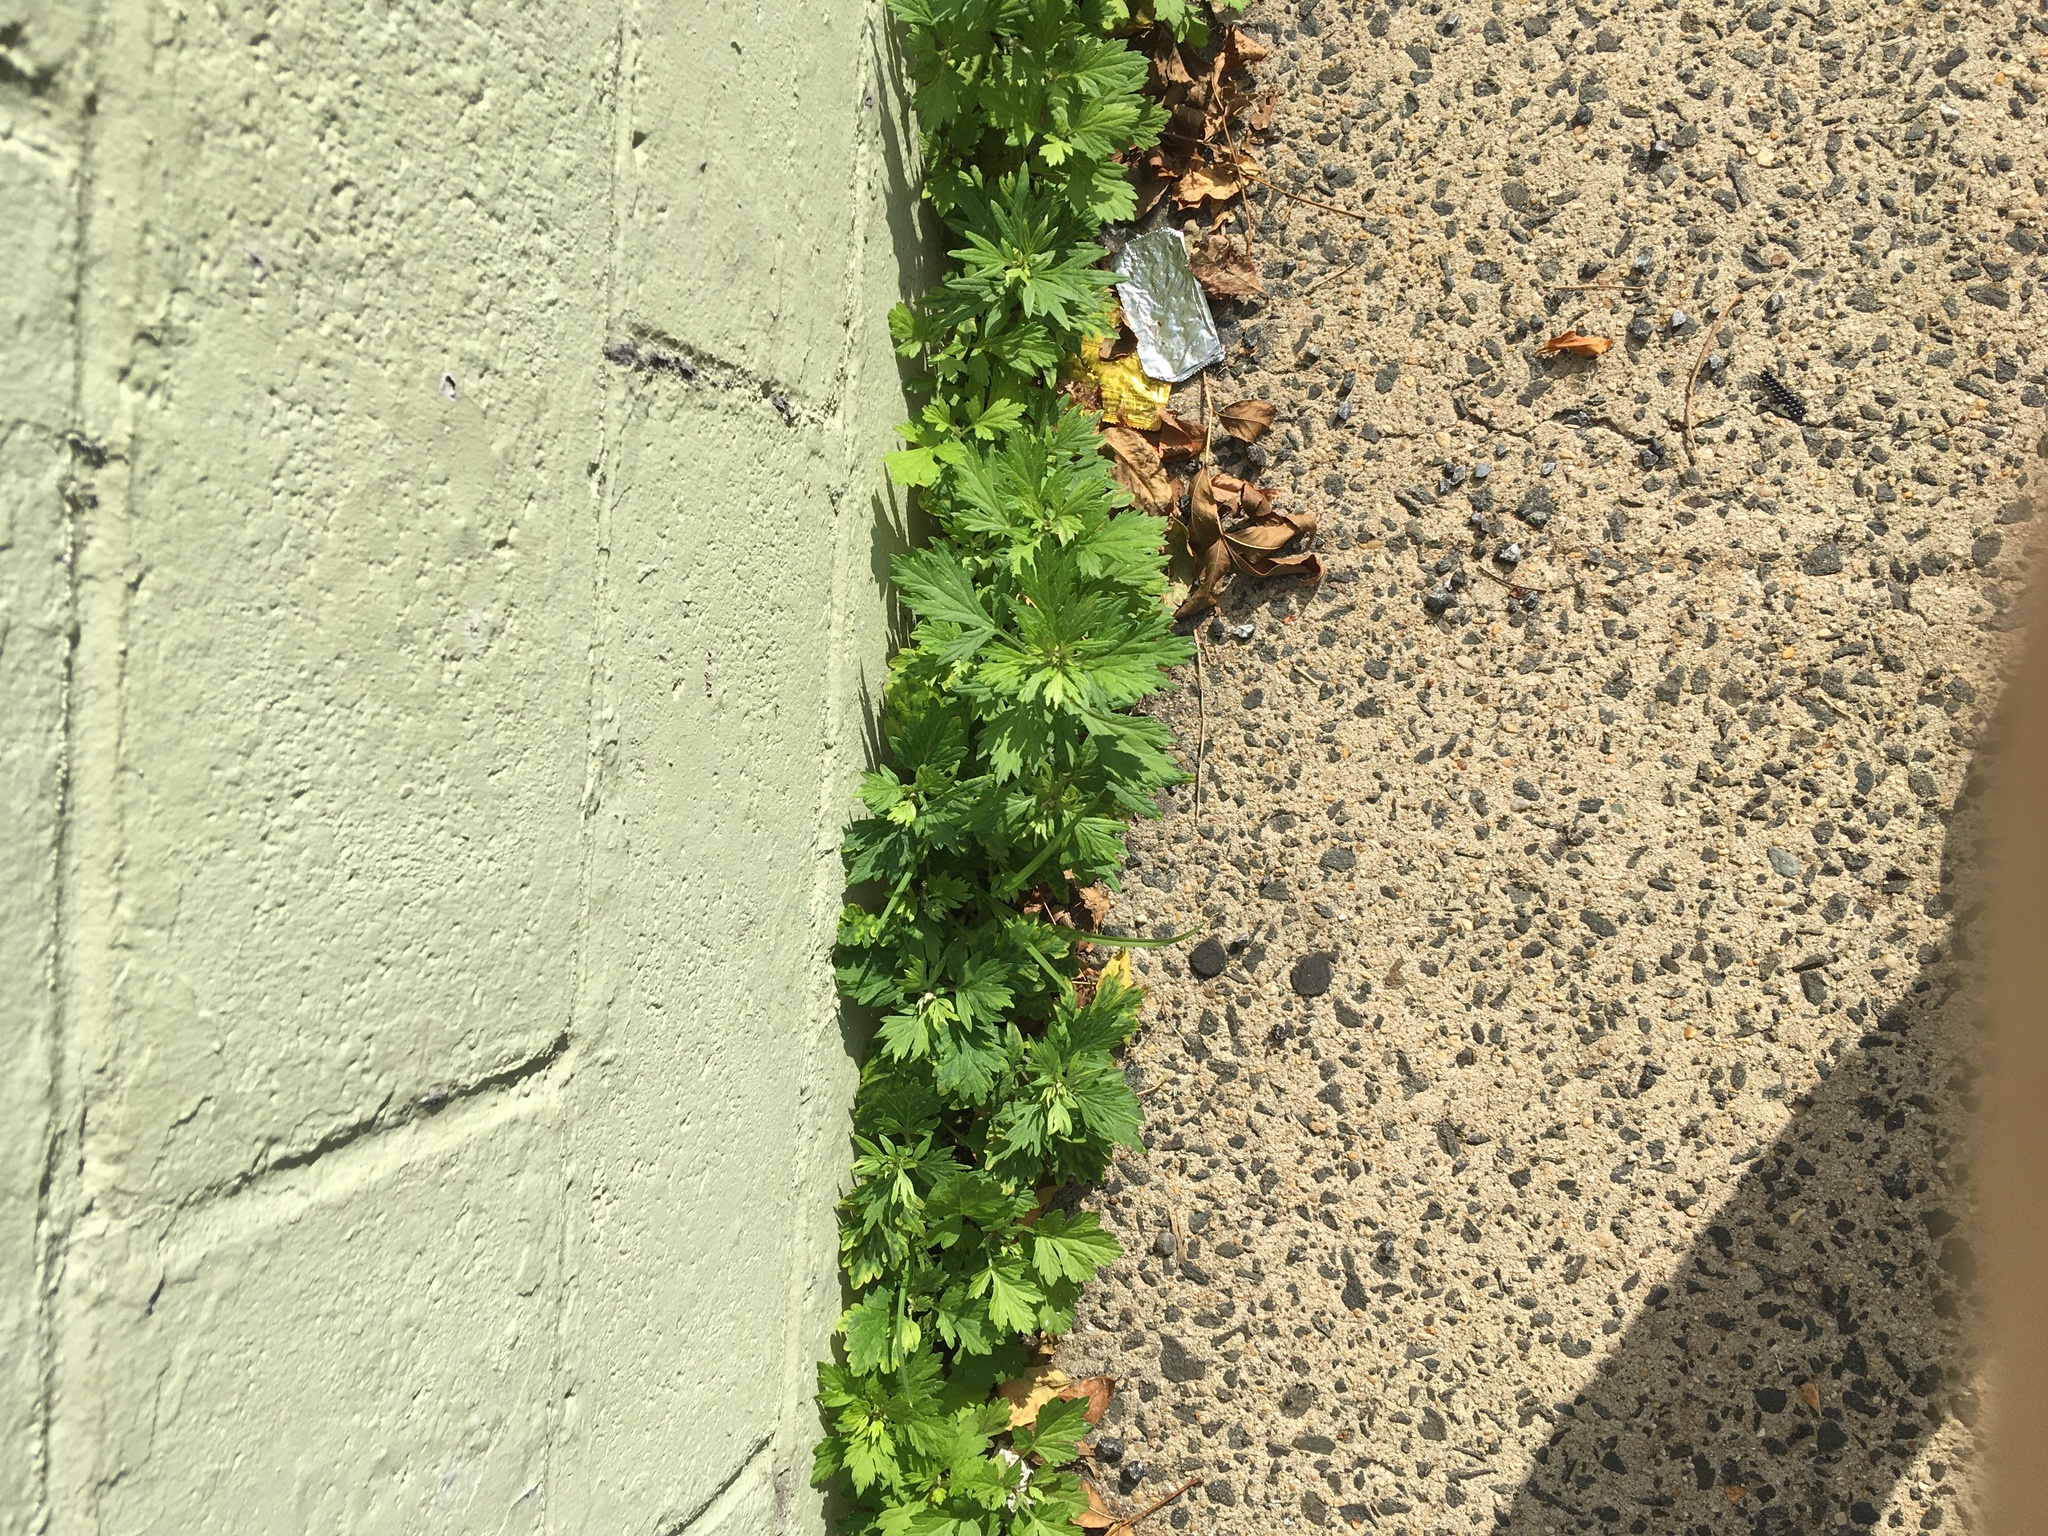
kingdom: Plantae
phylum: Tracheophyta
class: Magnoliopsida
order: Asterales
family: Asteraceae
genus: Artemisia
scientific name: Artemisia vulgaris
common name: Mugwort
